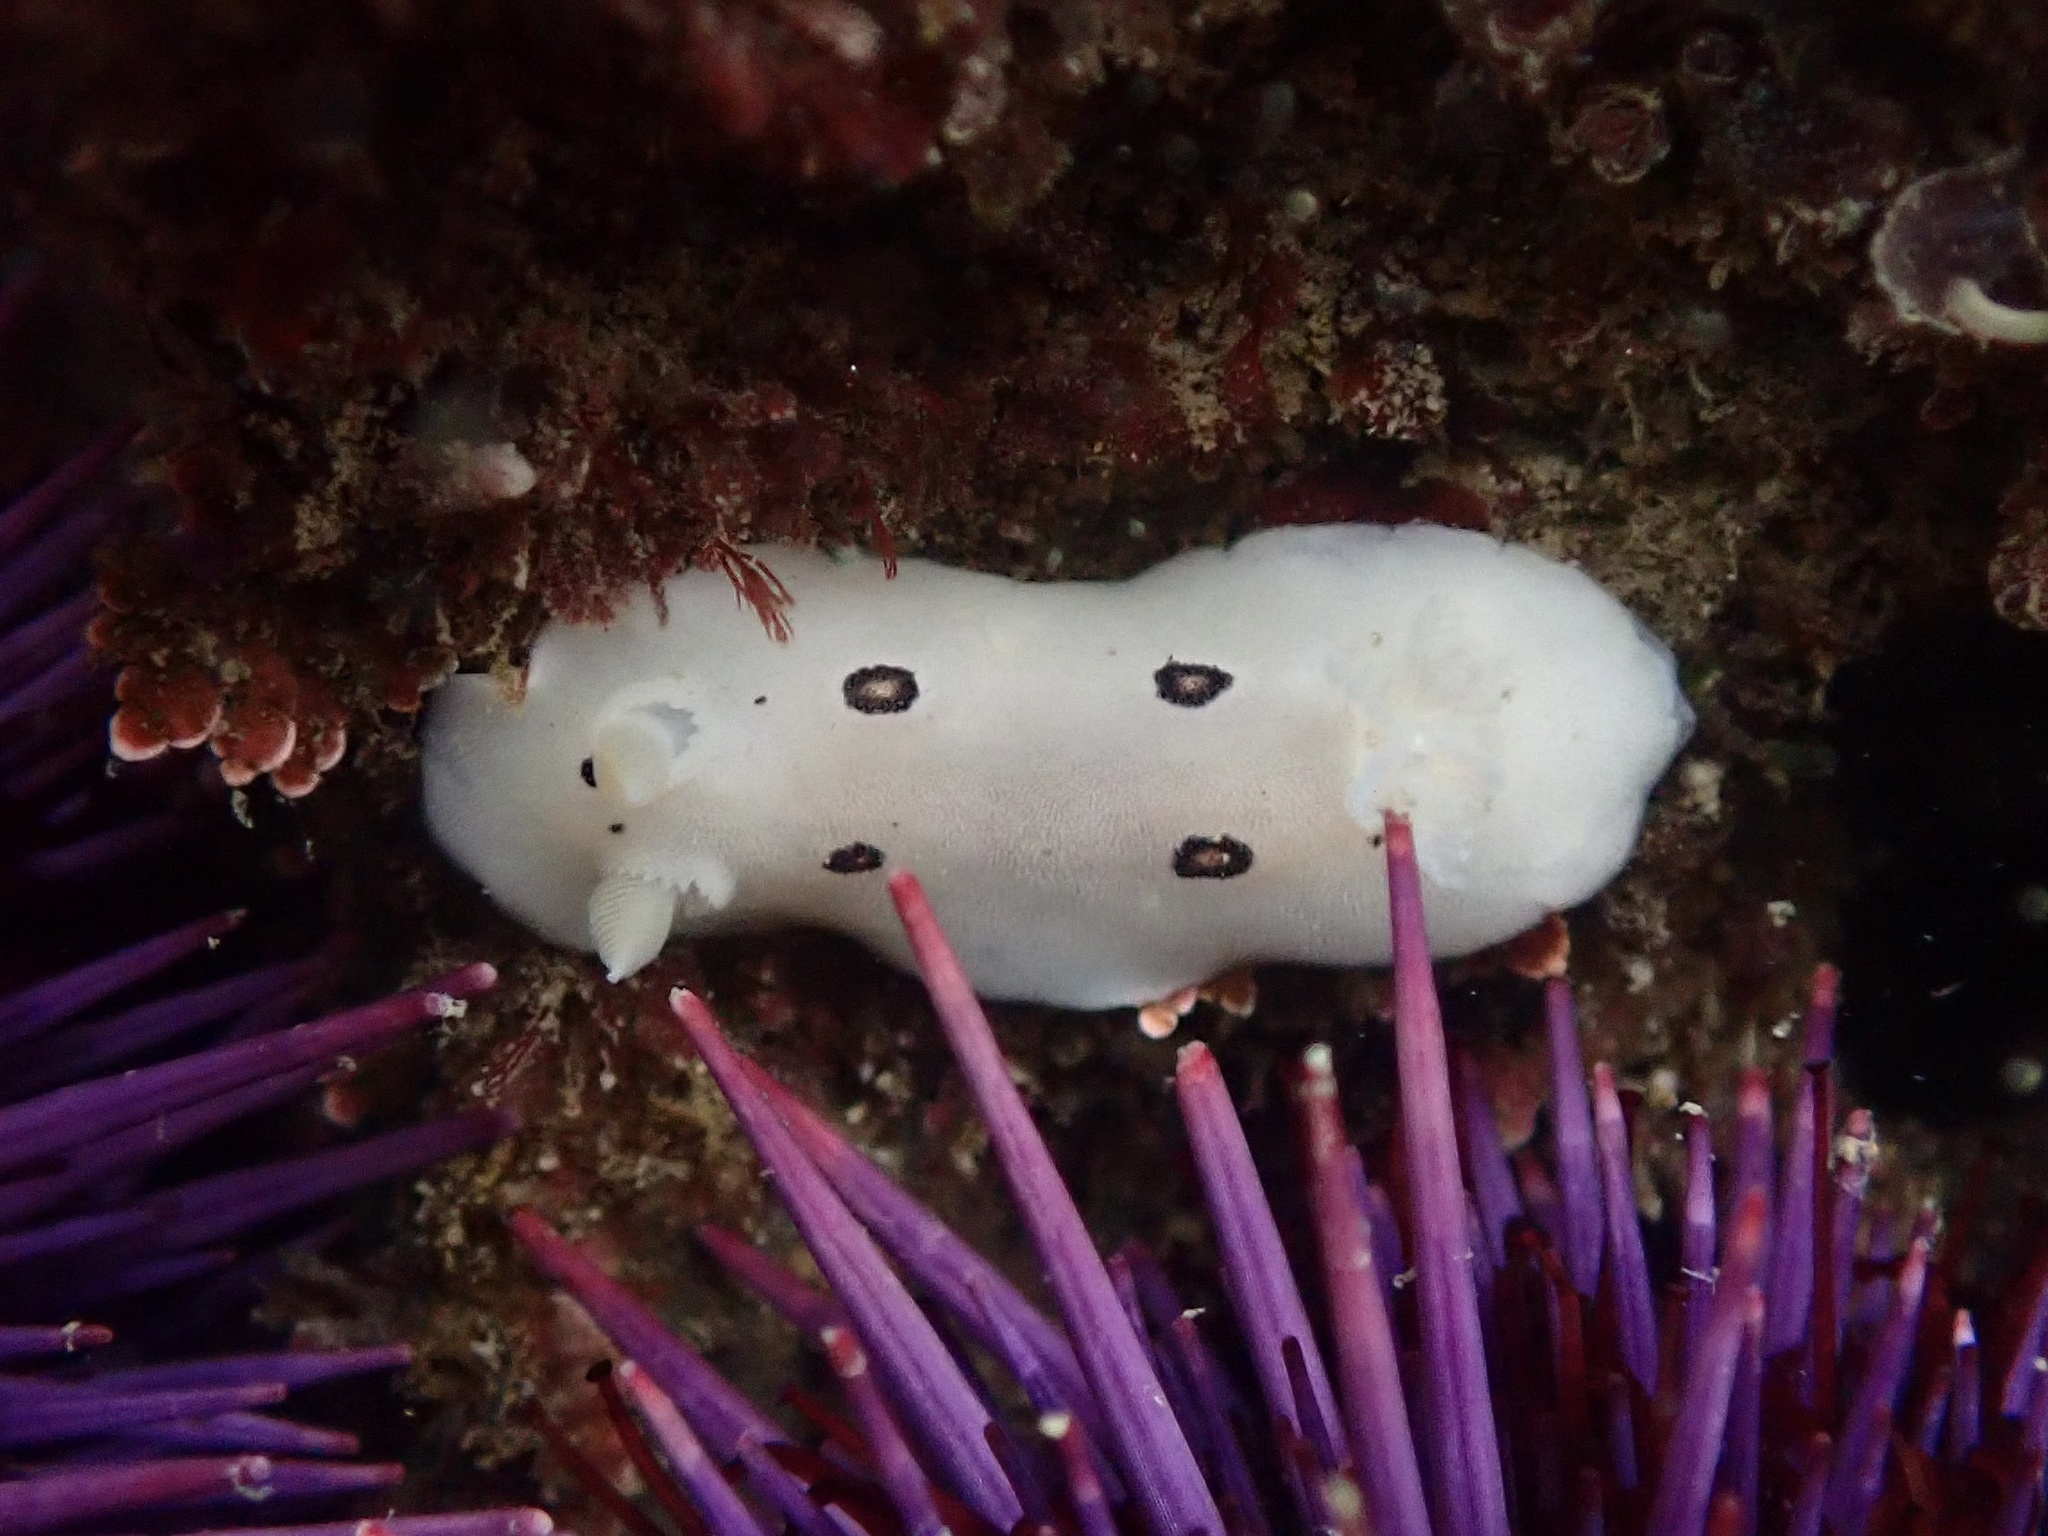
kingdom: Animalia
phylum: Mollusca
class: Gastropoda
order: Nudibranchia
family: Discodorididae
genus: Diaulula
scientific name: Diaulula sandiegensis
